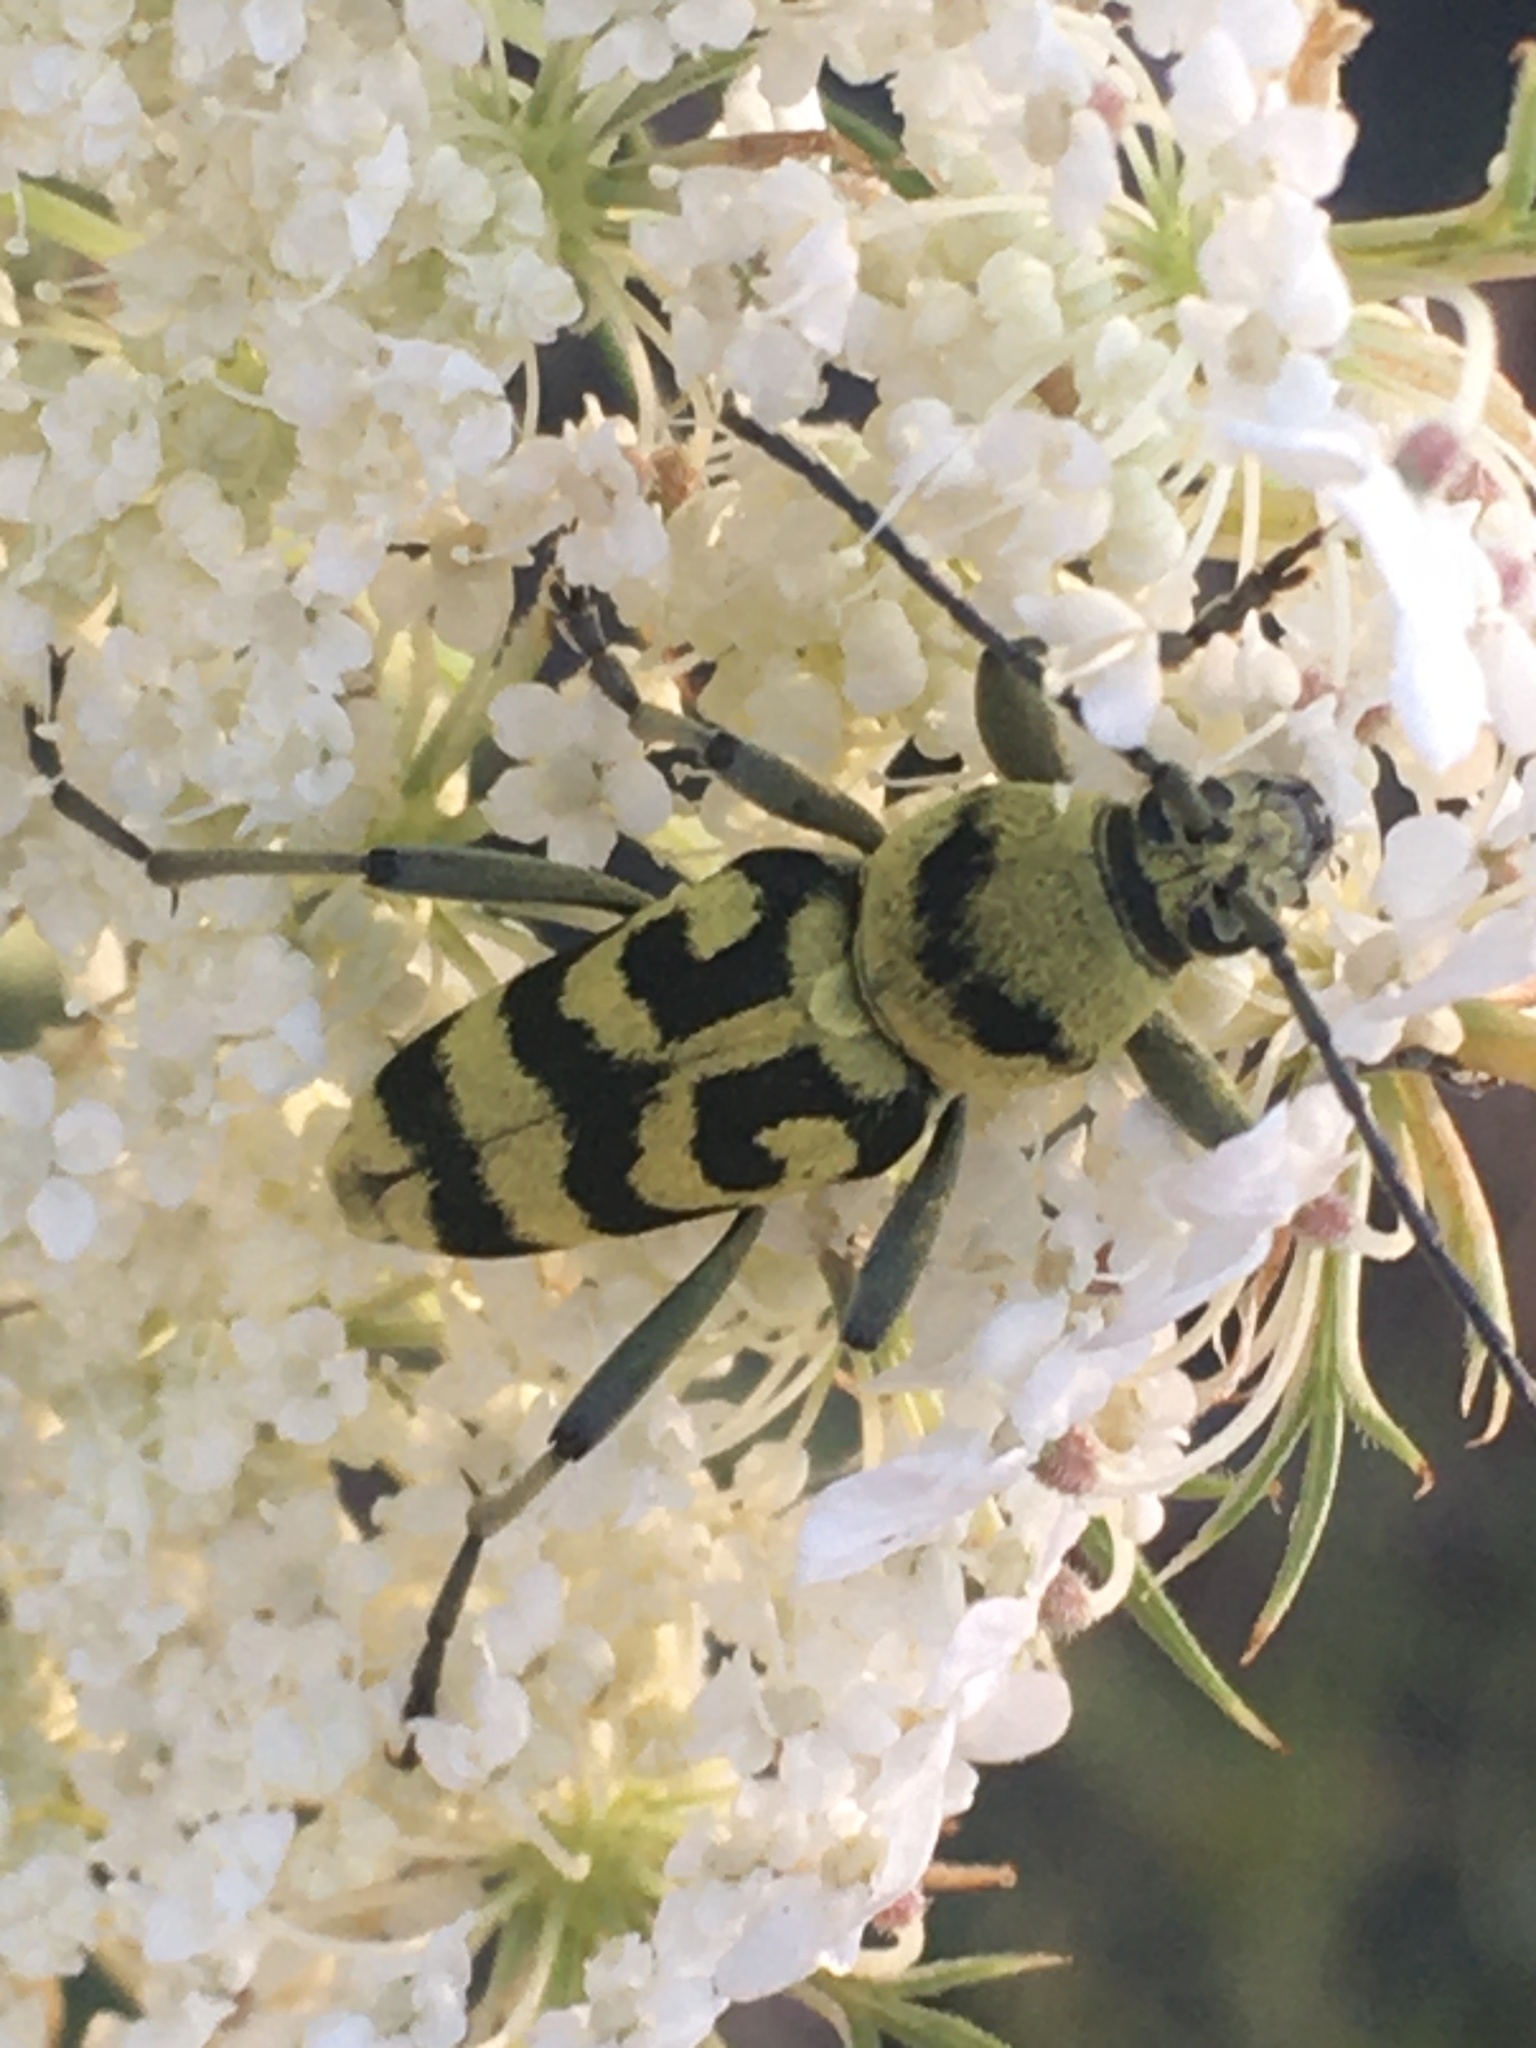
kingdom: Animalia
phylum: Arthropoda
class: Insecta
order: Coleoptera
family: Cerambycidae
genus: Chlorophorus
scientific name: Chlorophorus varius
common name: Grape wood borer
